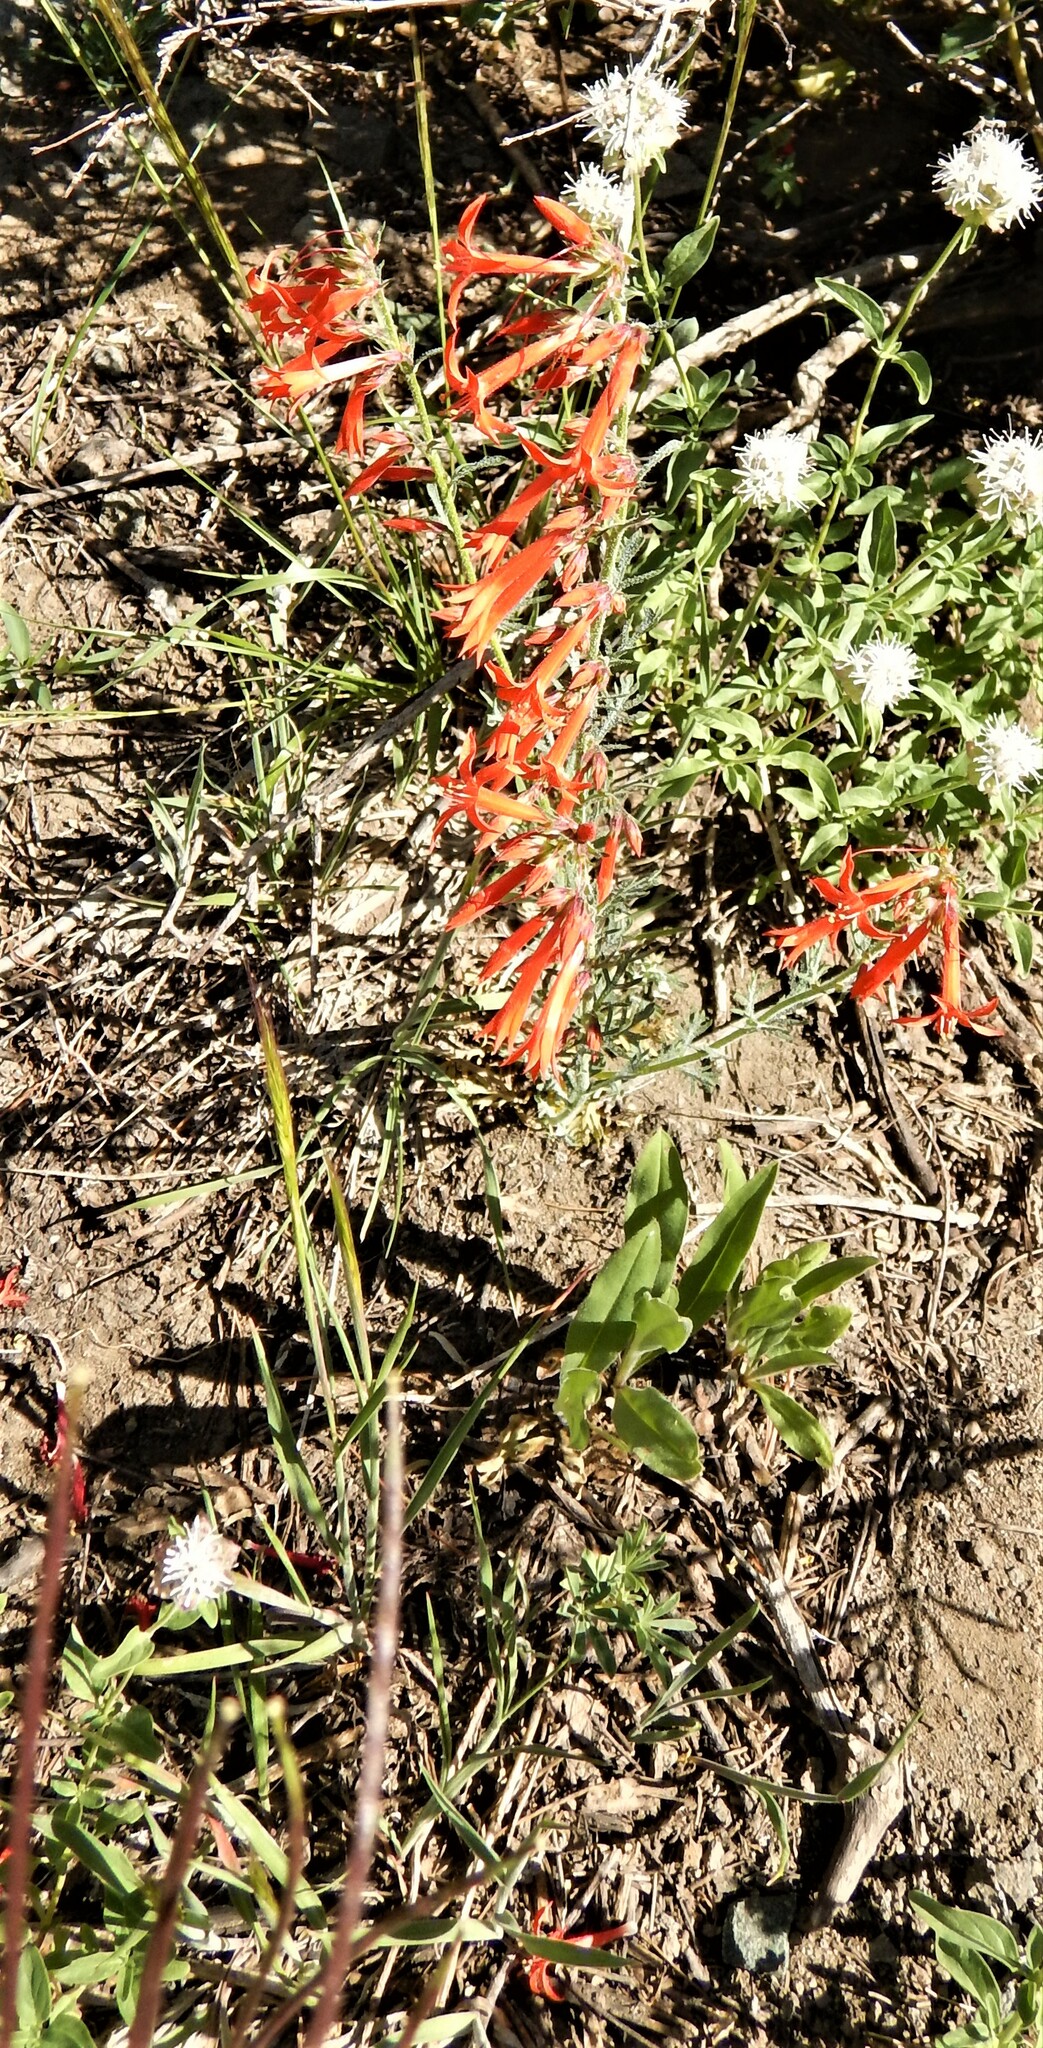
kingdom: Plantae
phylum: Tracheophyta
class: Magnoliopsida
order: Ericales
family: Polemoniaceae
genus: Ipomopsis
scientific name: Ipomopsis aggregata
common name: Scarlet gilia
